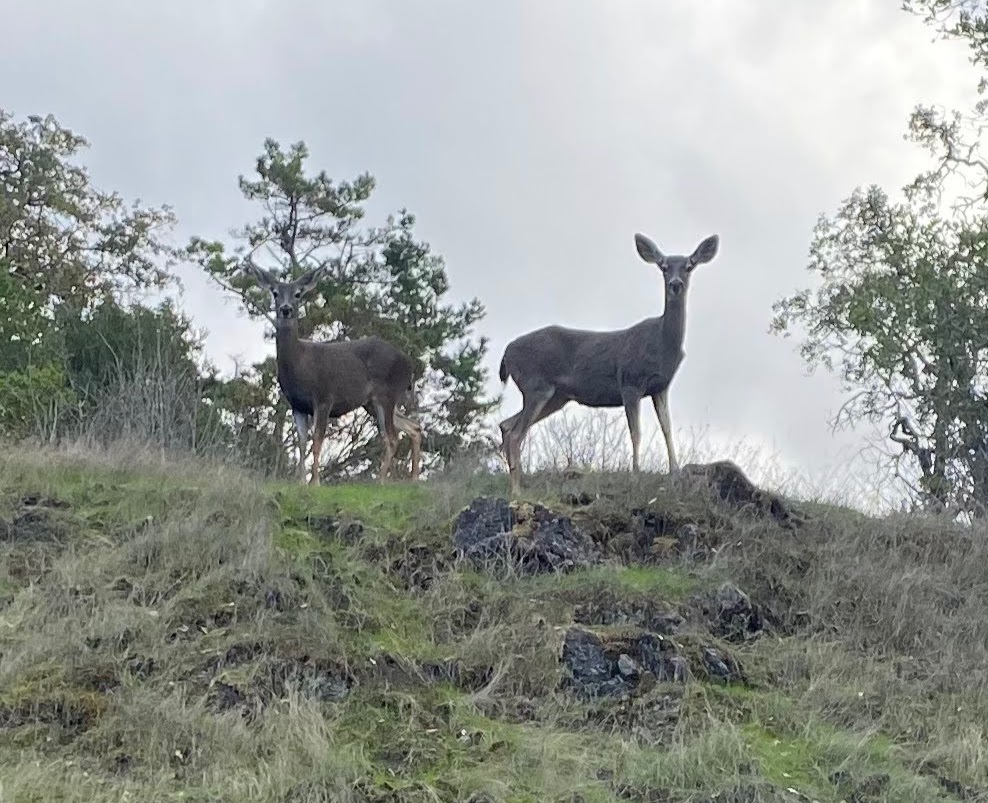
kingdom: Animalia
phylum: Chordata
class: Mammalia
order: Artiodactyla
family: Cervidae
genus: Odocoileus
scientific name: Odocoileus hemionus
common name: Mule deer
